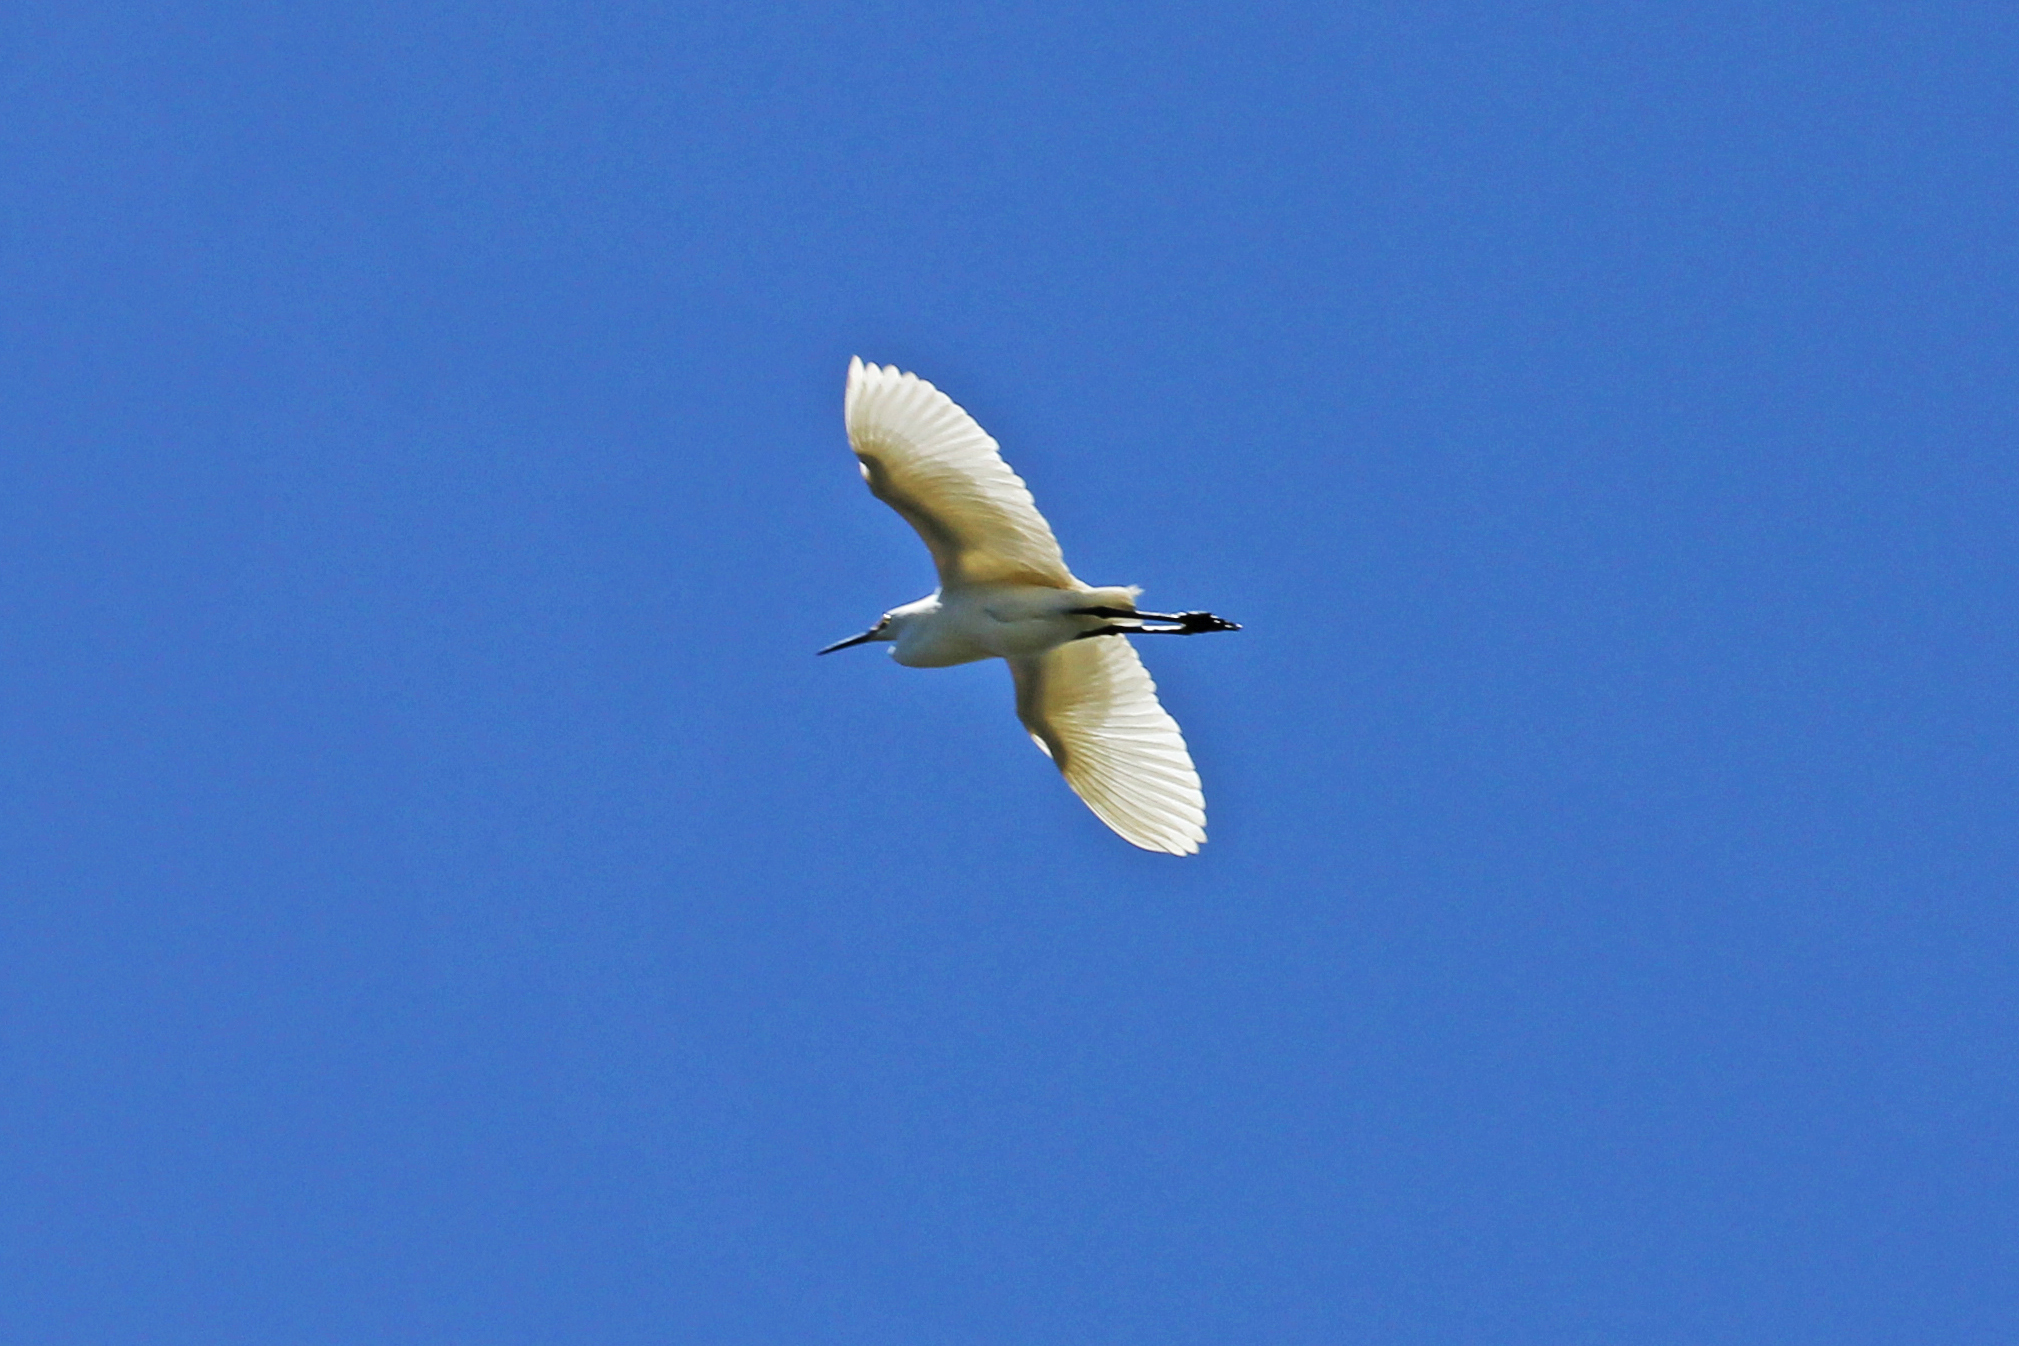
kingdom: Animalia
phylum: Chordata
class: Aves
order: Pelecaniformes
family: Ardeidae
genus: Egretta
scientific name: Egretta thula
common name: Snowy egret
